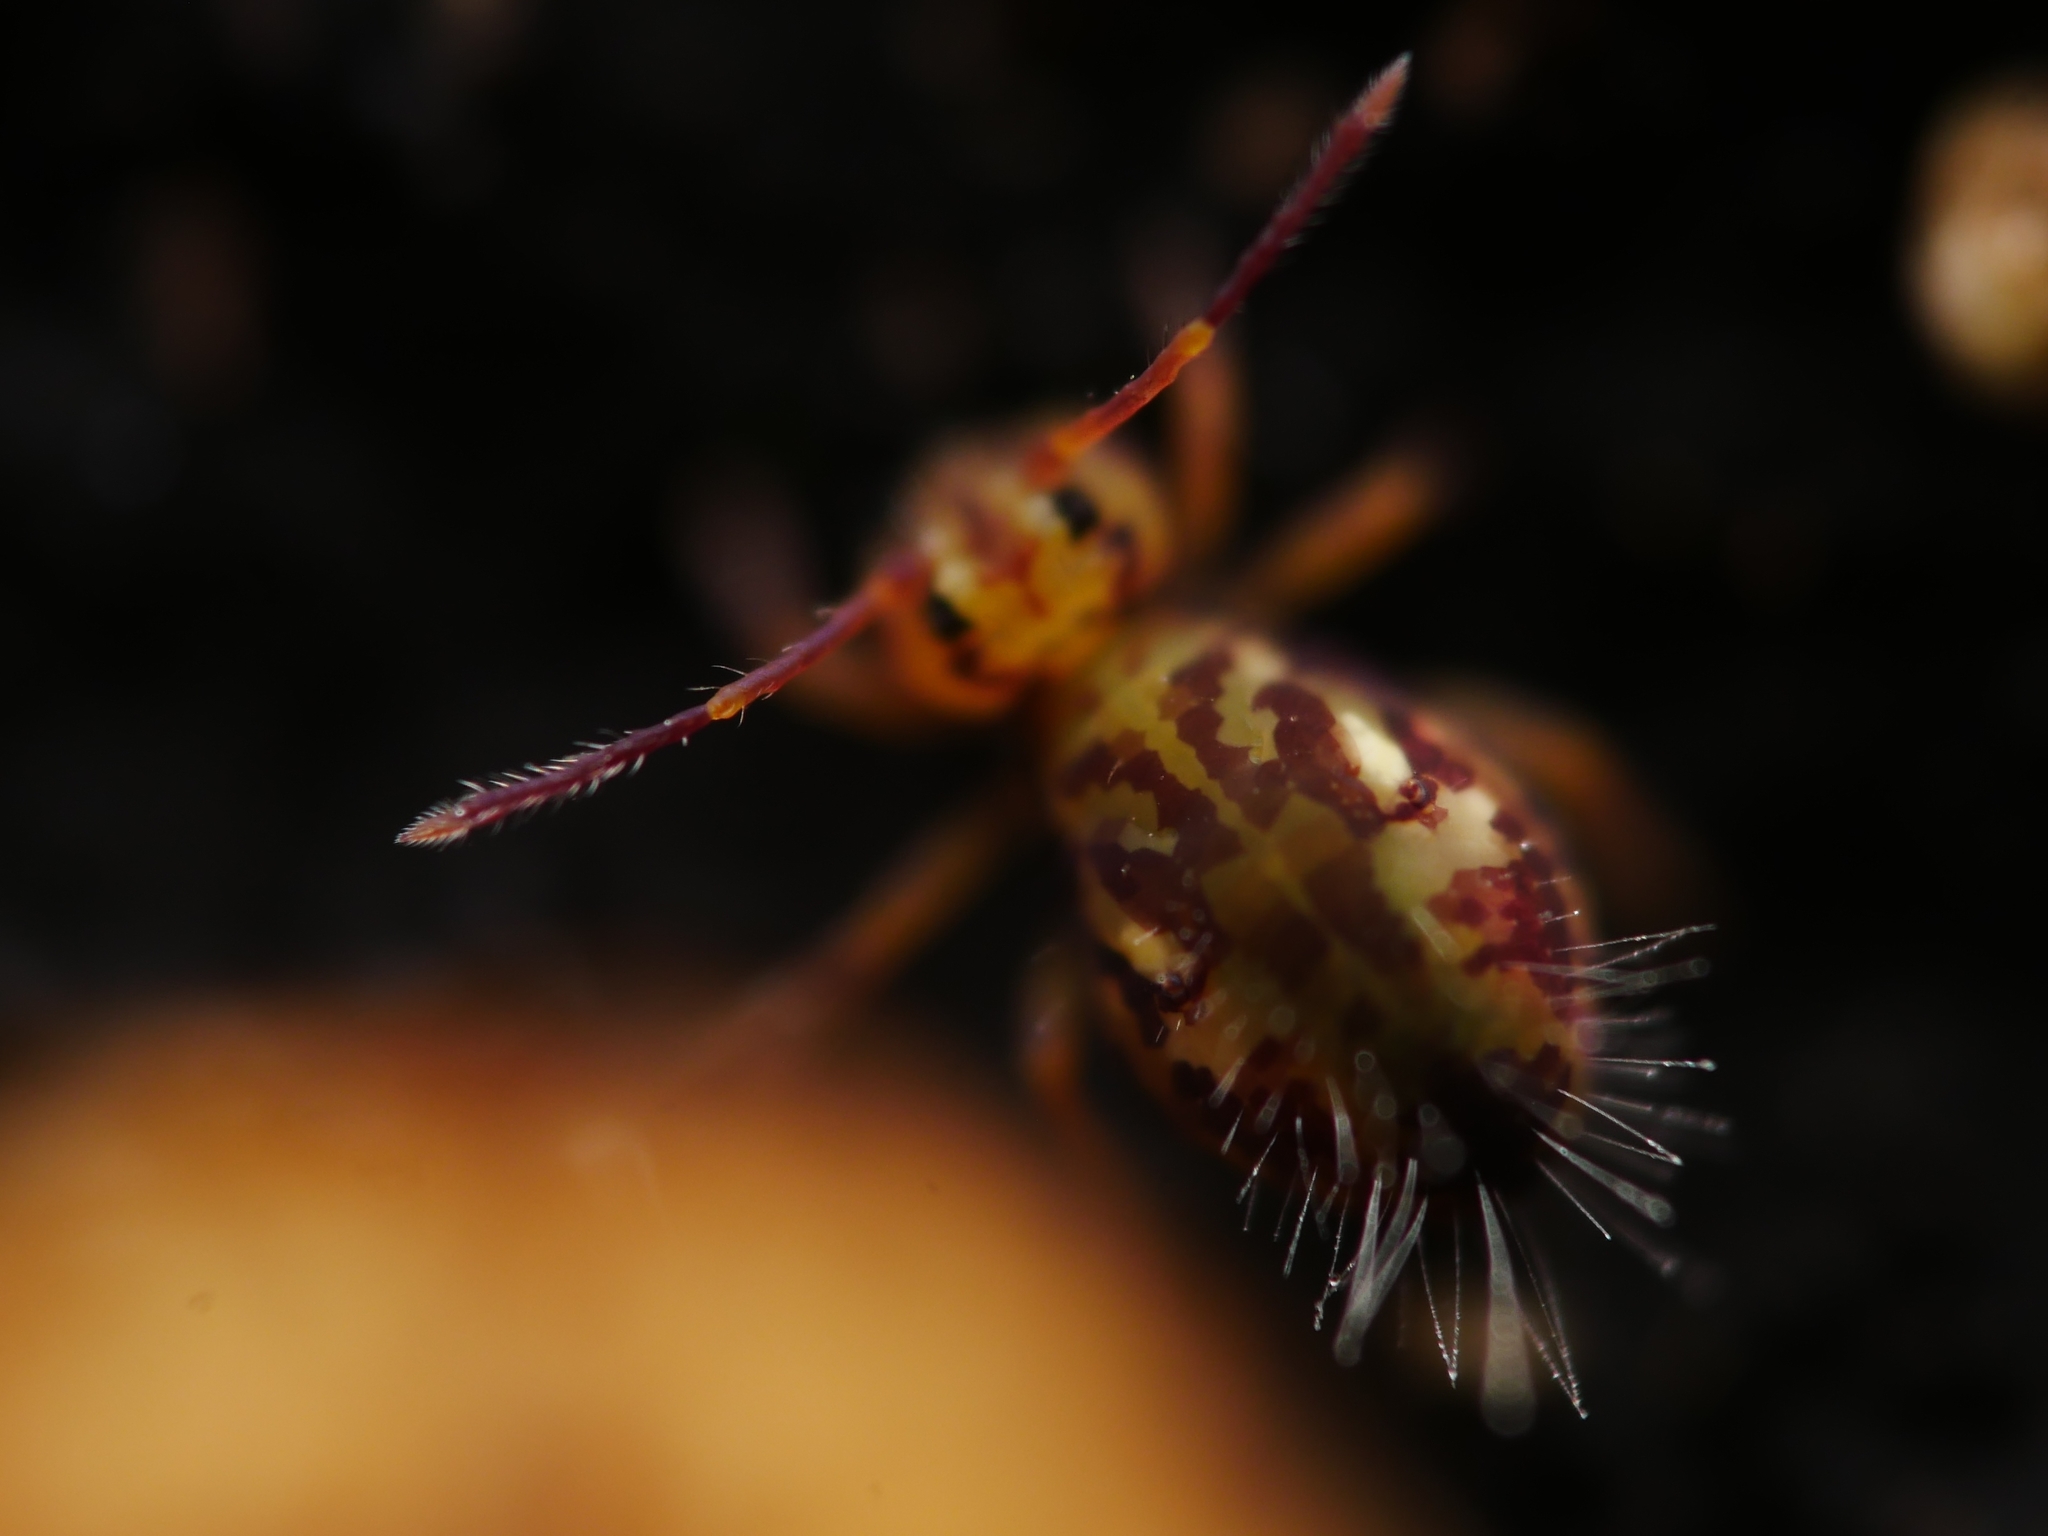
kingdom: Animalia
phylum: Arthropoda
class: Collembola
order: Symphypleona
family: Dicyrtomidae
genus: Dicyrtomina
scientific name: Dicyrtomina saundersi
